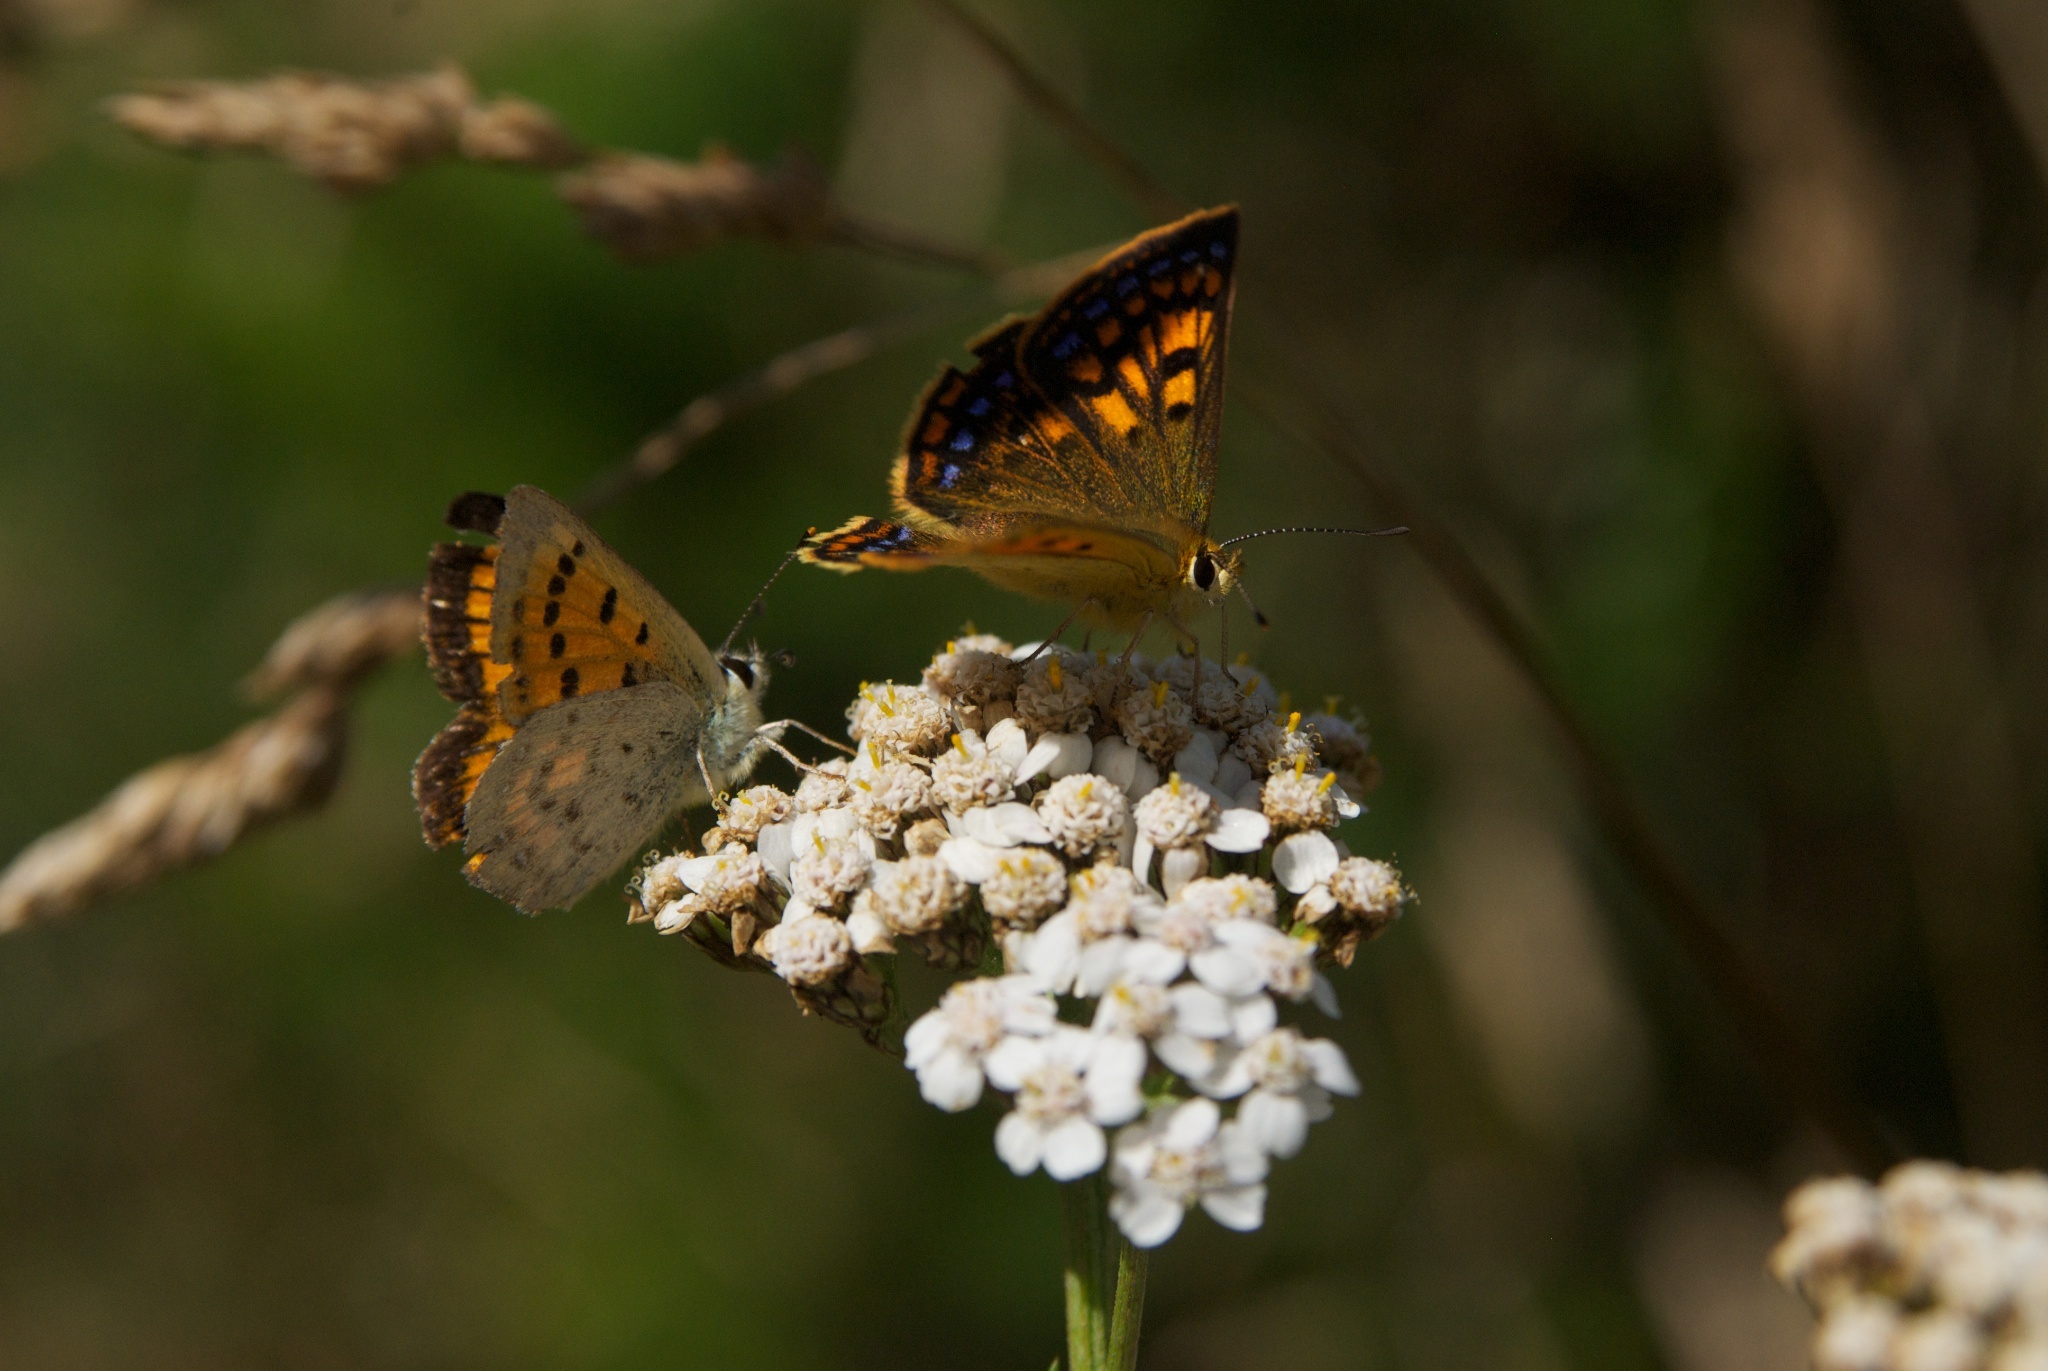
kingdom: Animalia
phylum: Arthropoda
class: Insecta
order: Lepidoptera
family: Lycaenidae
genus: Lycaena
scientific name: Lycaena salustius
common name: North island coastal copper
